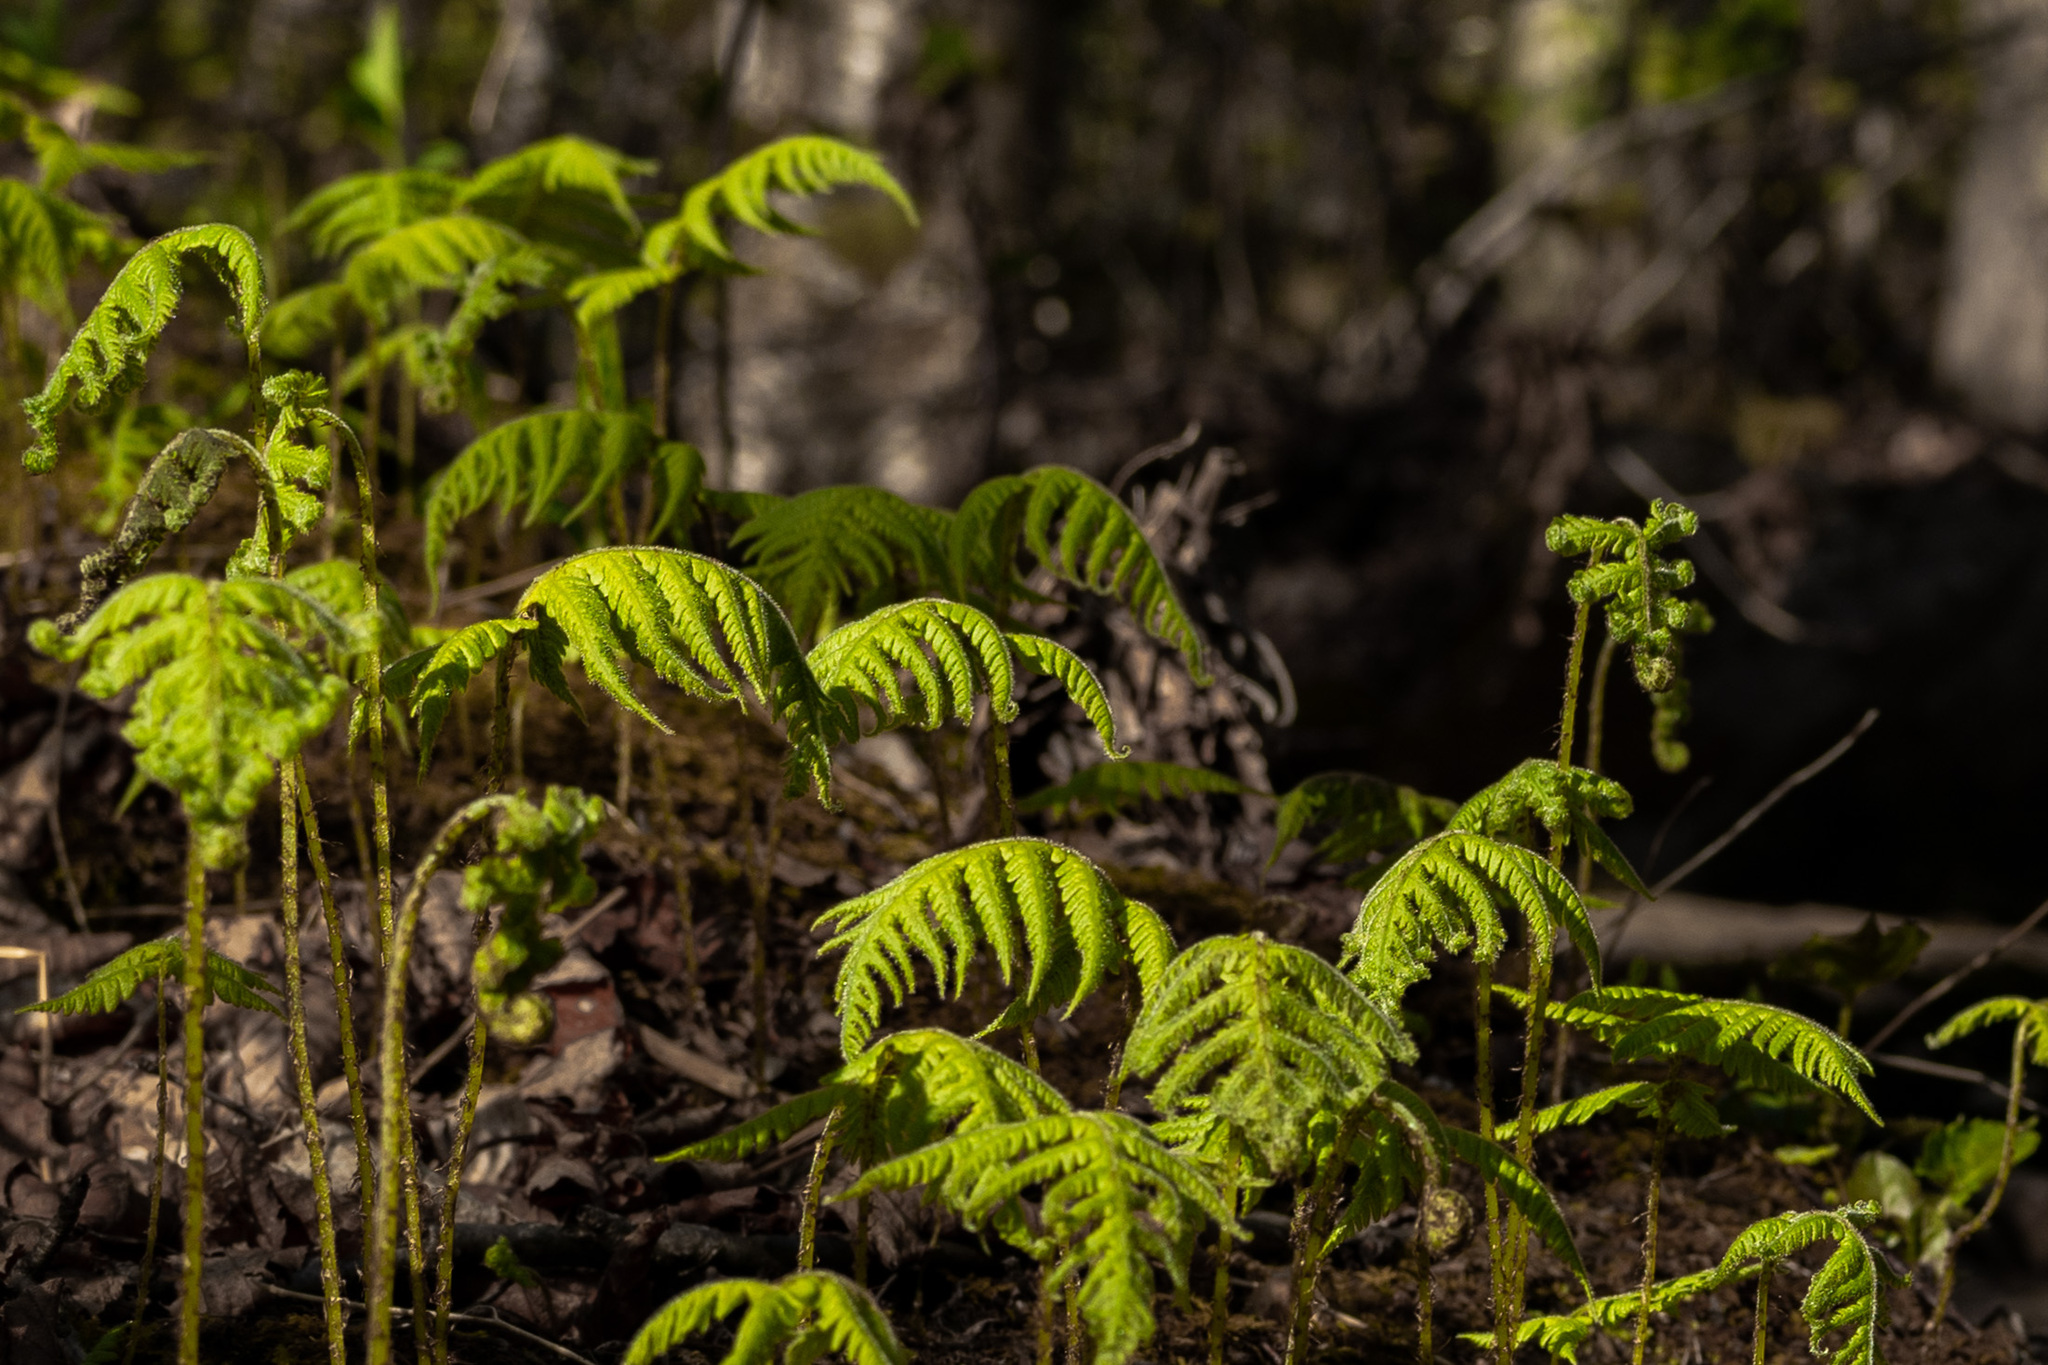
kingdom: Plantae
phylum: Tracheophyta
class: Polypodiopsida
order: Polypodiales
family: Thelypteridaceae
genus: Phegopteris
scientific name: Phegopteris connectilis
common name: Beech fern
